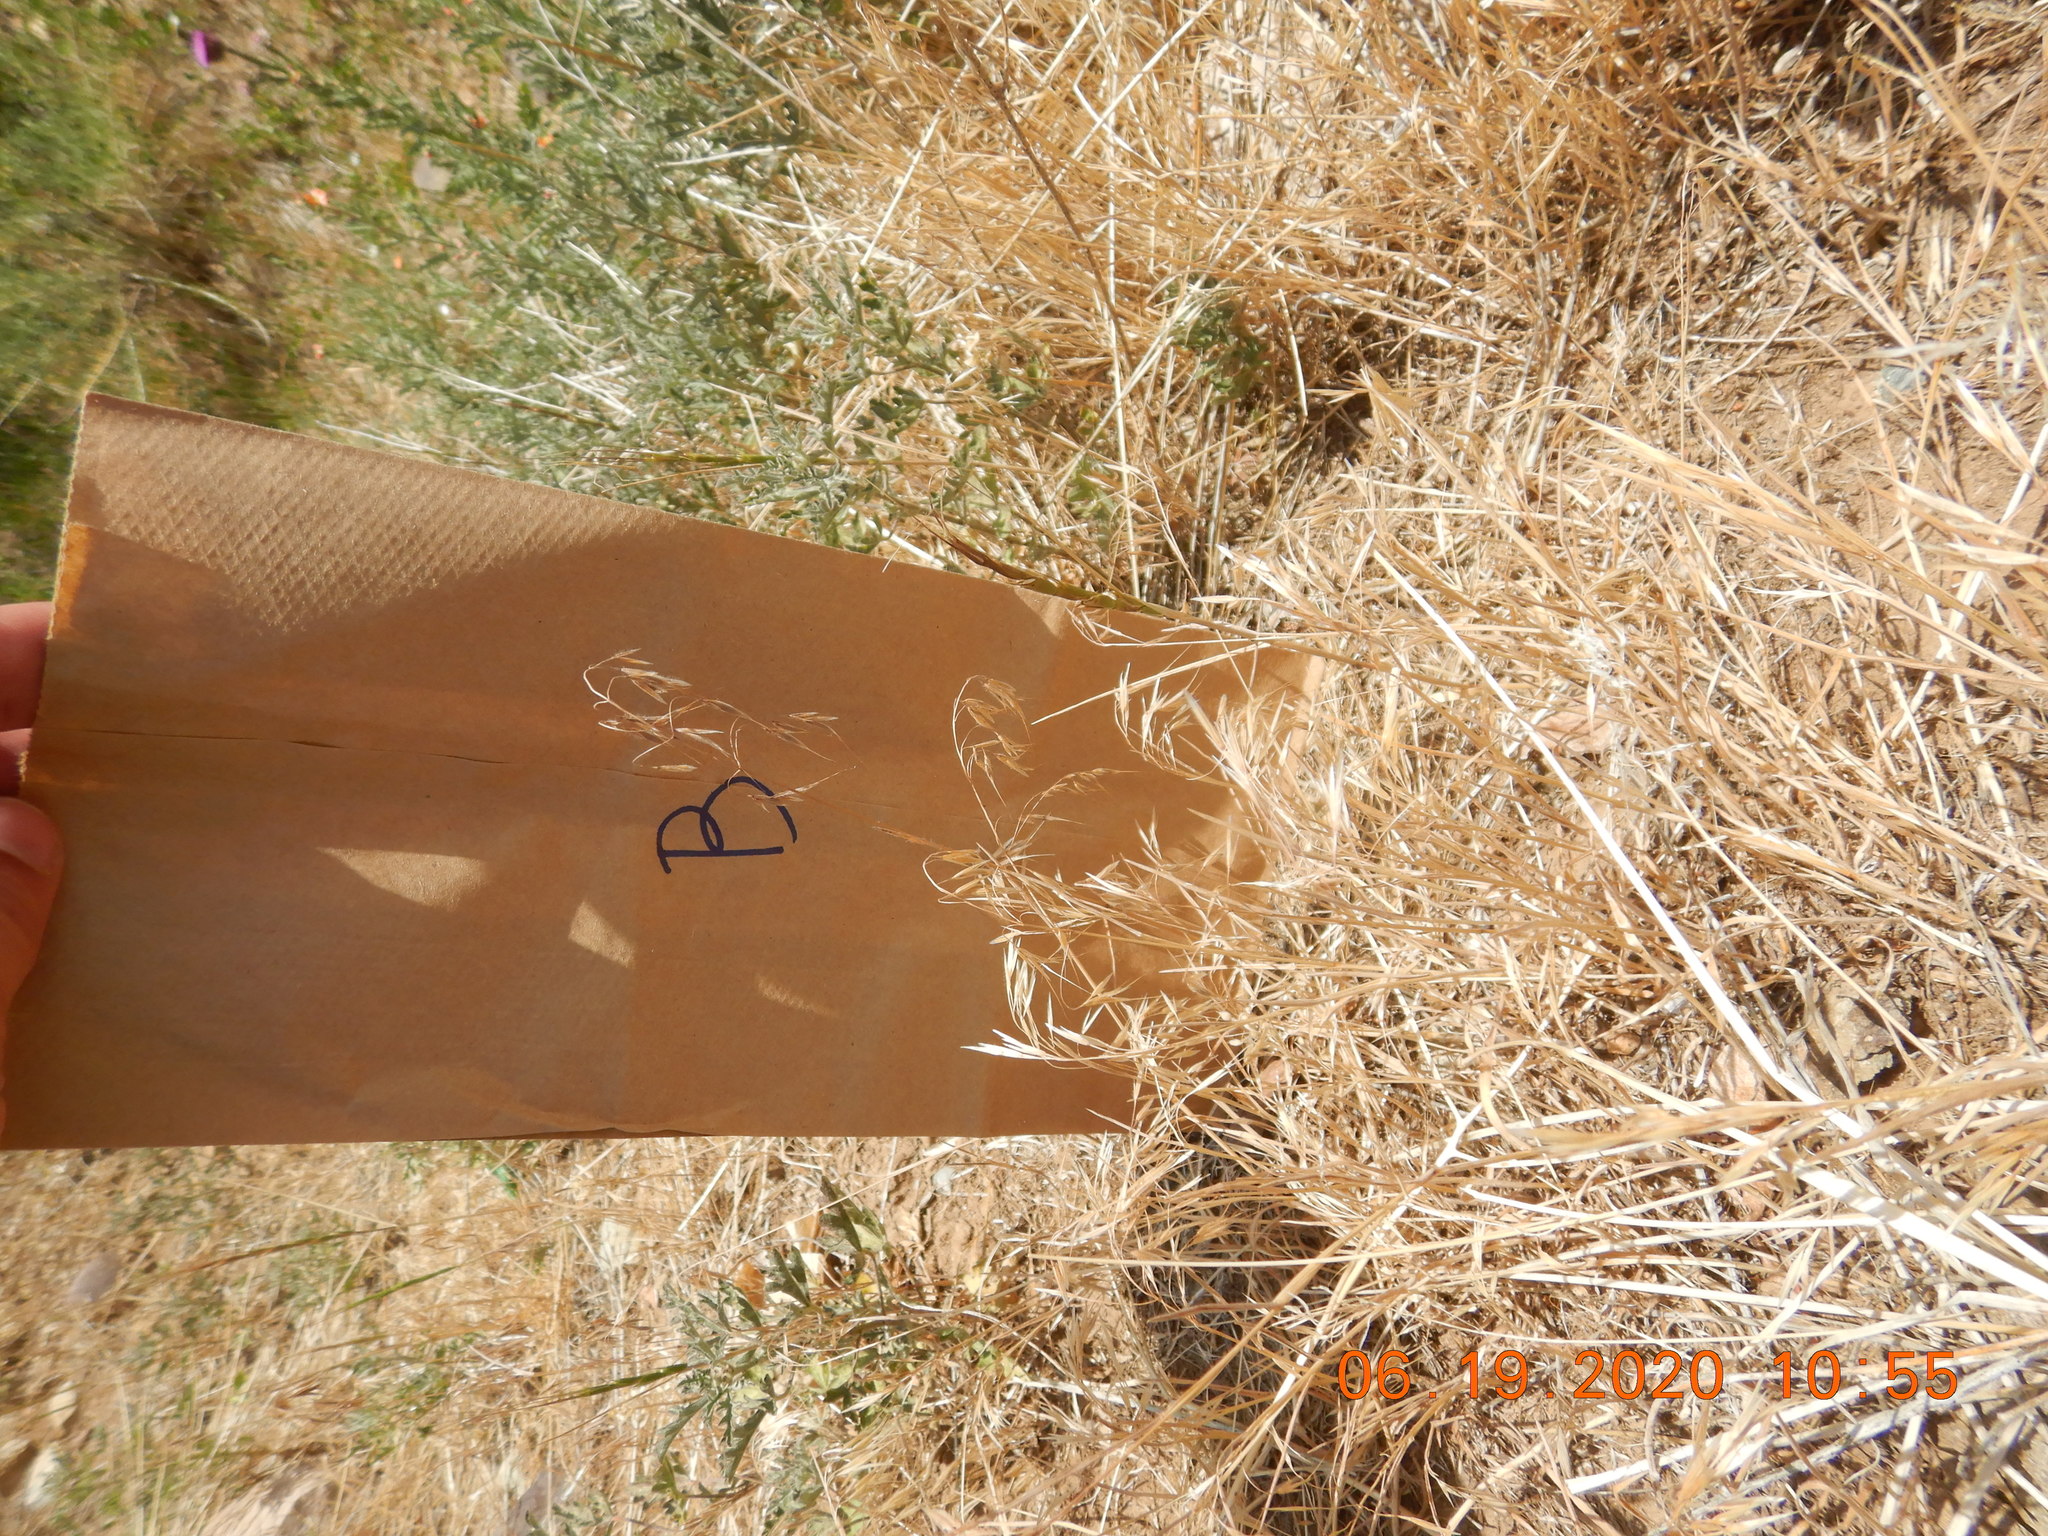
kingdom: Plantae
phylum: Tracheophyta
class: Liliopsida
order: Poales
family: Poaceae
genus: Bromus
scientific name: Bromus tectorum
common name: Cheatgrass
